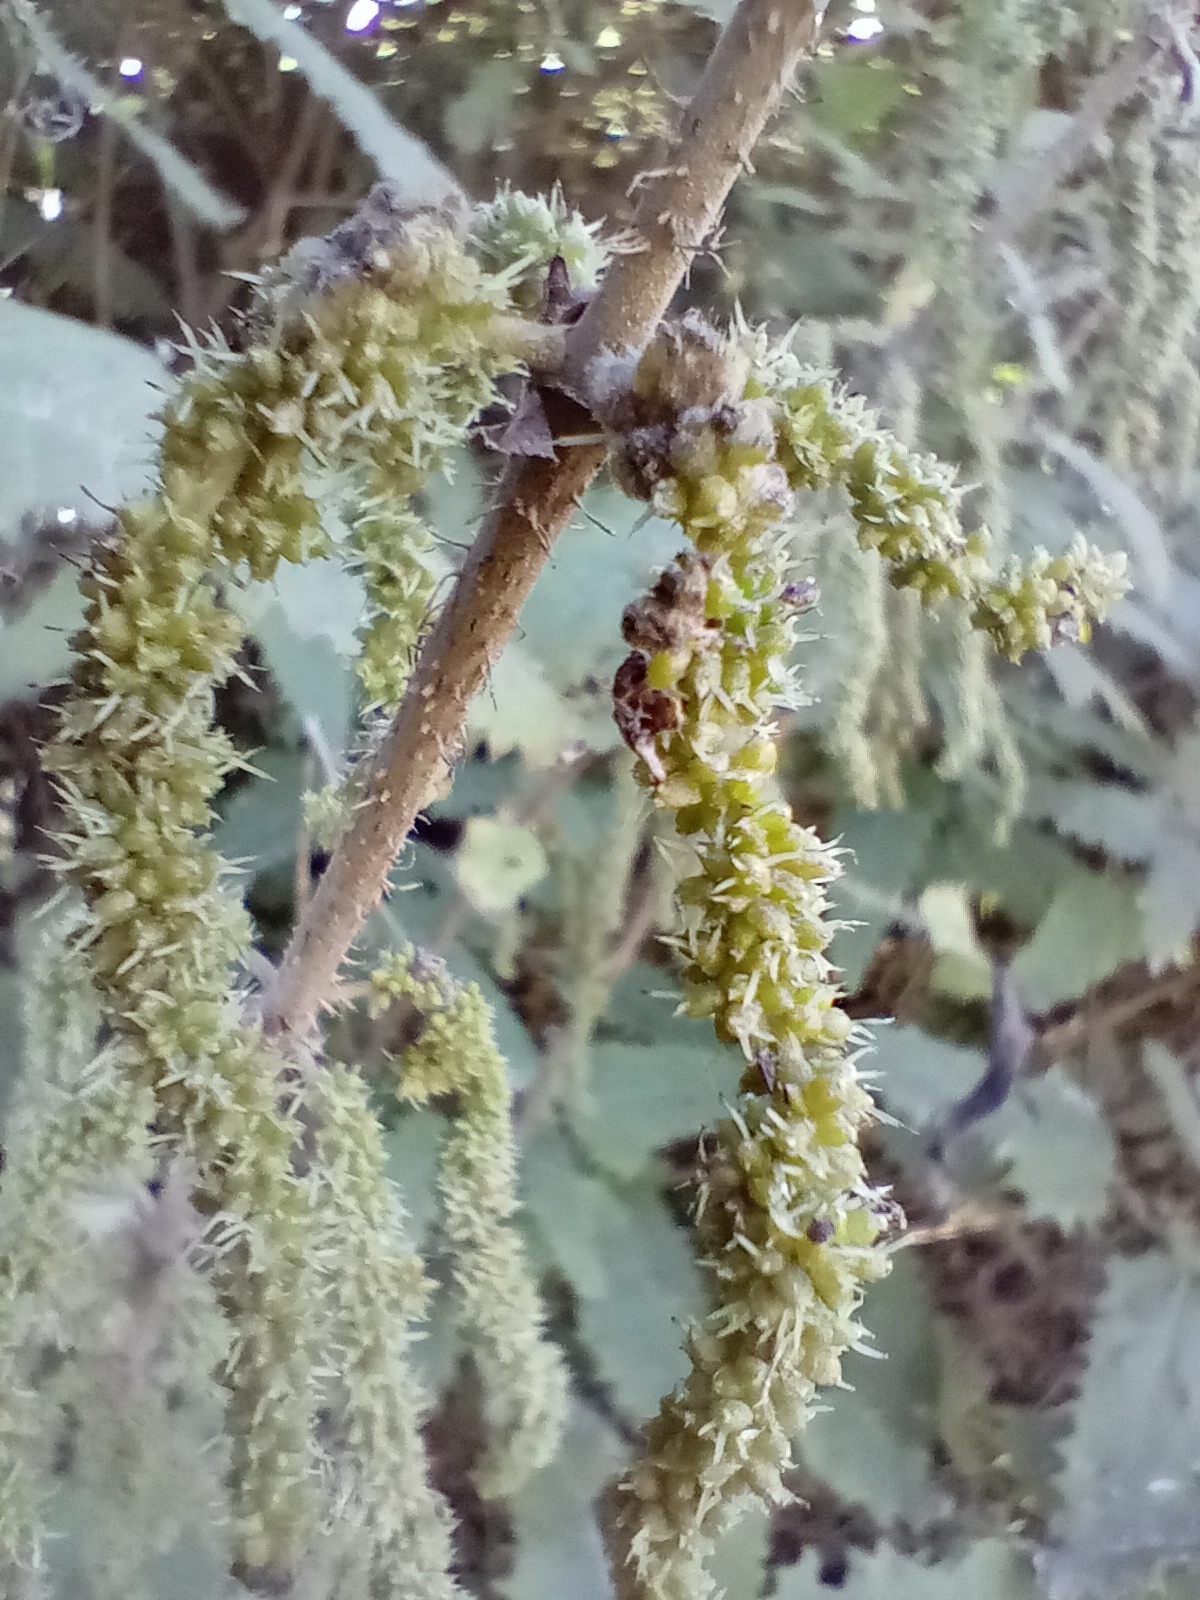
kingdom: Plantae
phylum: Tracheophyta
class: Magnoliopsida
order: Rosales
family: Urticaceae
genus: Urtica
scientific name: Urtica ferox
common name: Tree nettle
